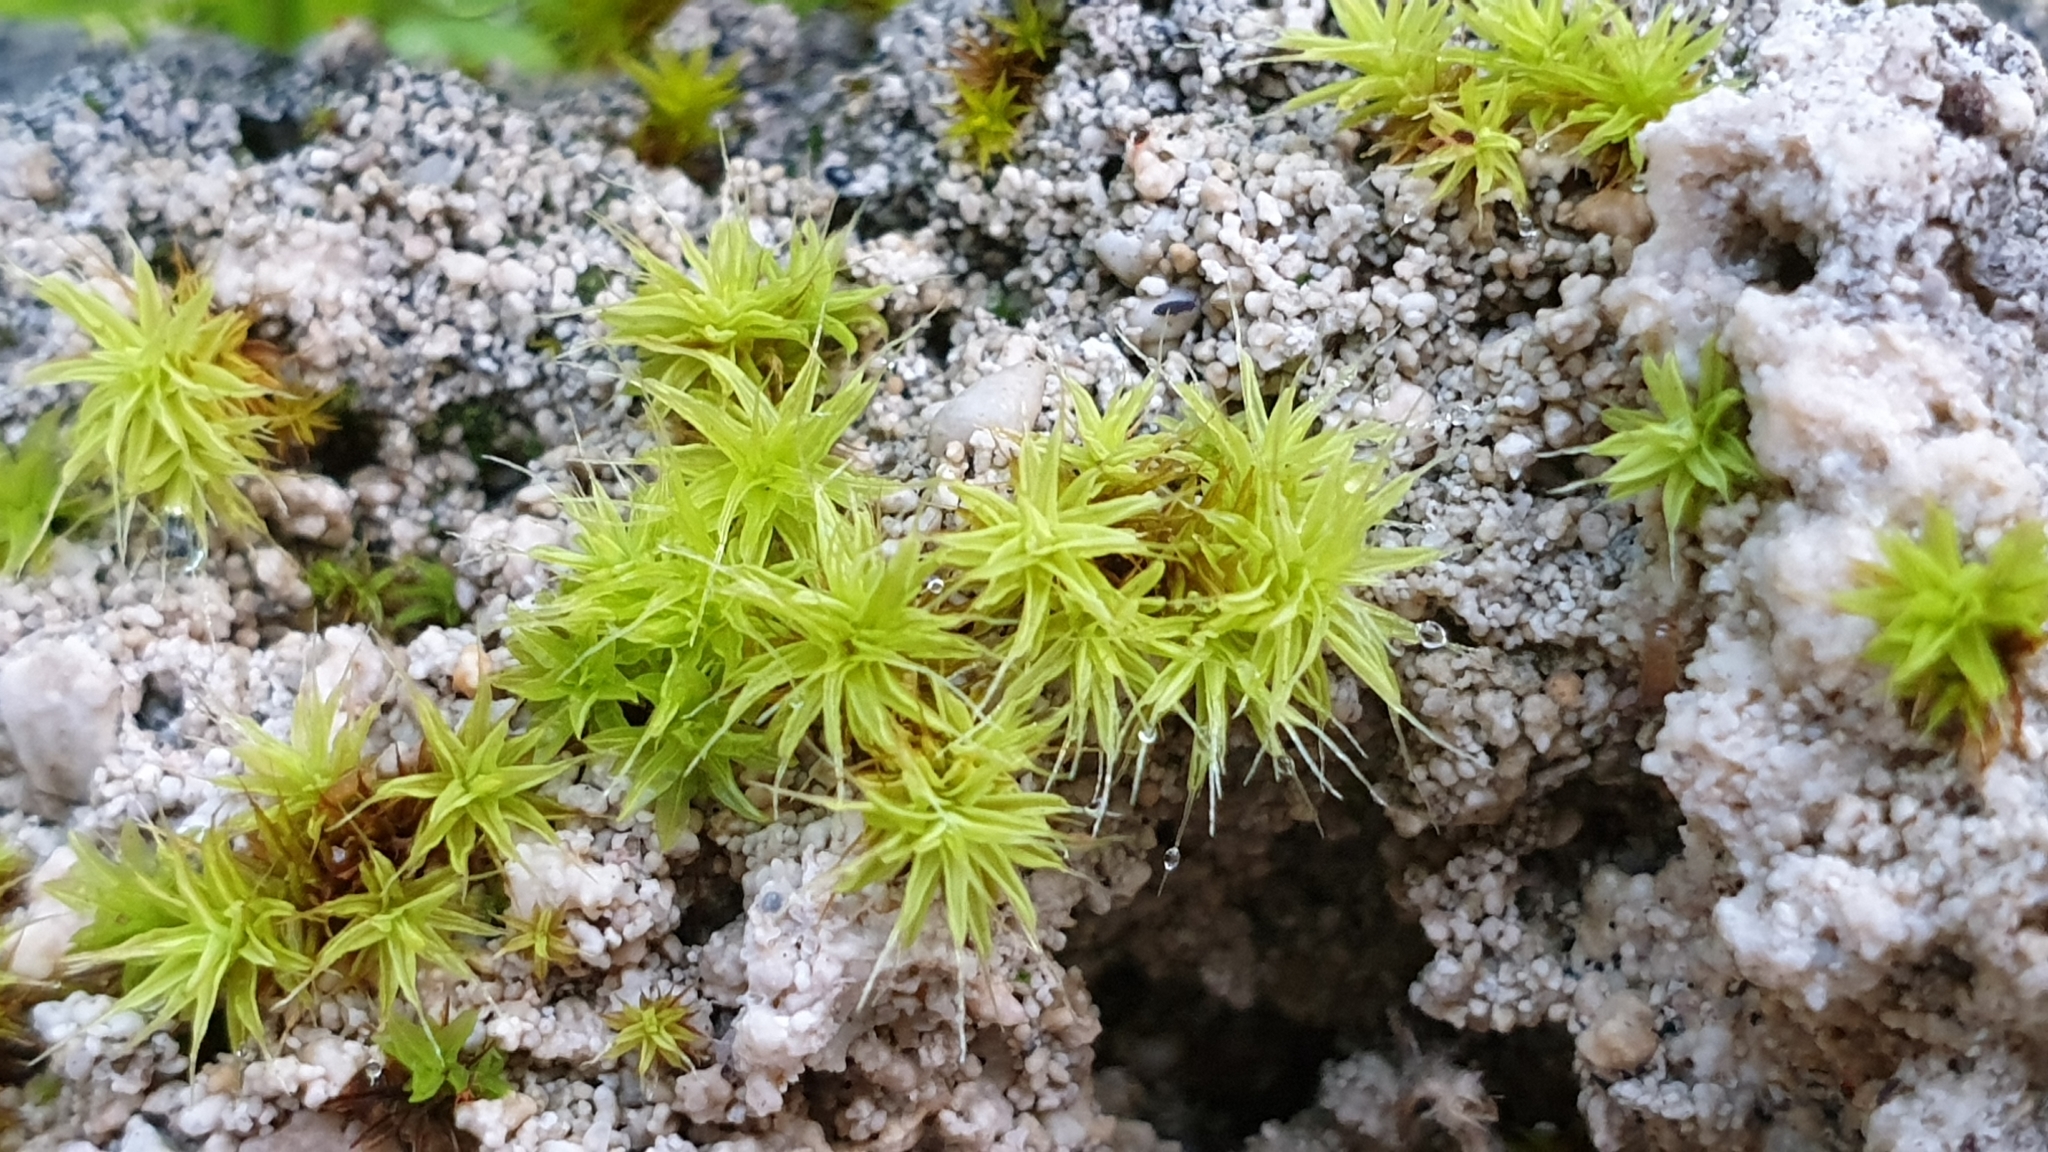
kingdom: Plantae
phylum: Bryophyta
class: Bryopsida
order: Pottiales
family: Pottiaceae
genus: Pseudocrossidium
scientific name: Pseudocrossidium crinitum
